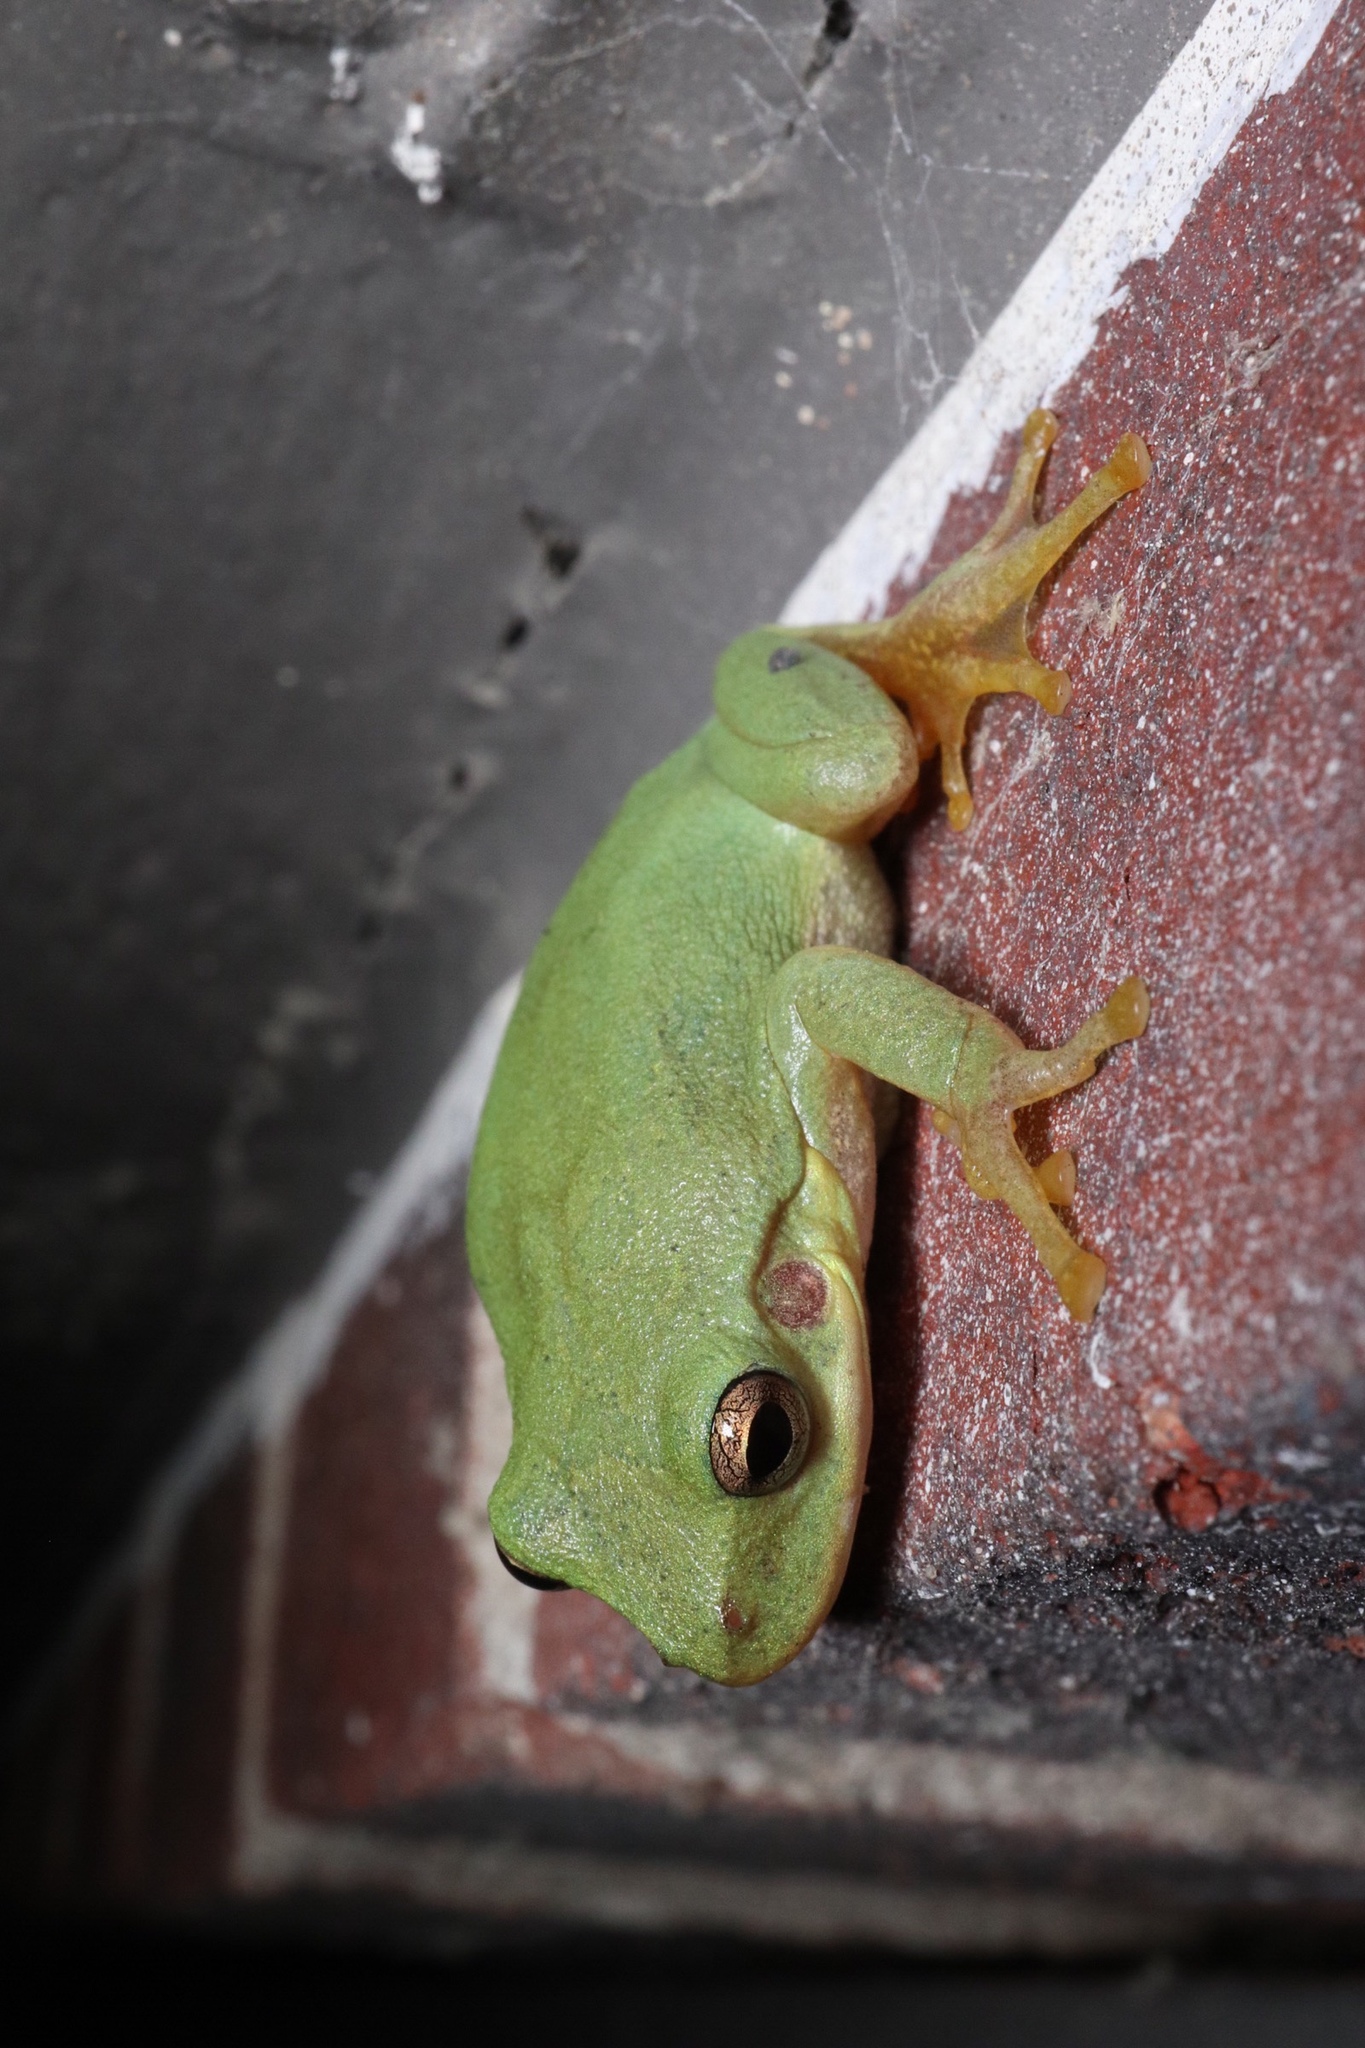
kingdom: Animalia
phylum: Chordata
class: Amphibia
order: Anura
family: Hylidae
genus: Dryophytes
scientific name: Dryophytes squirellus
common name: Squirrel treefrog
